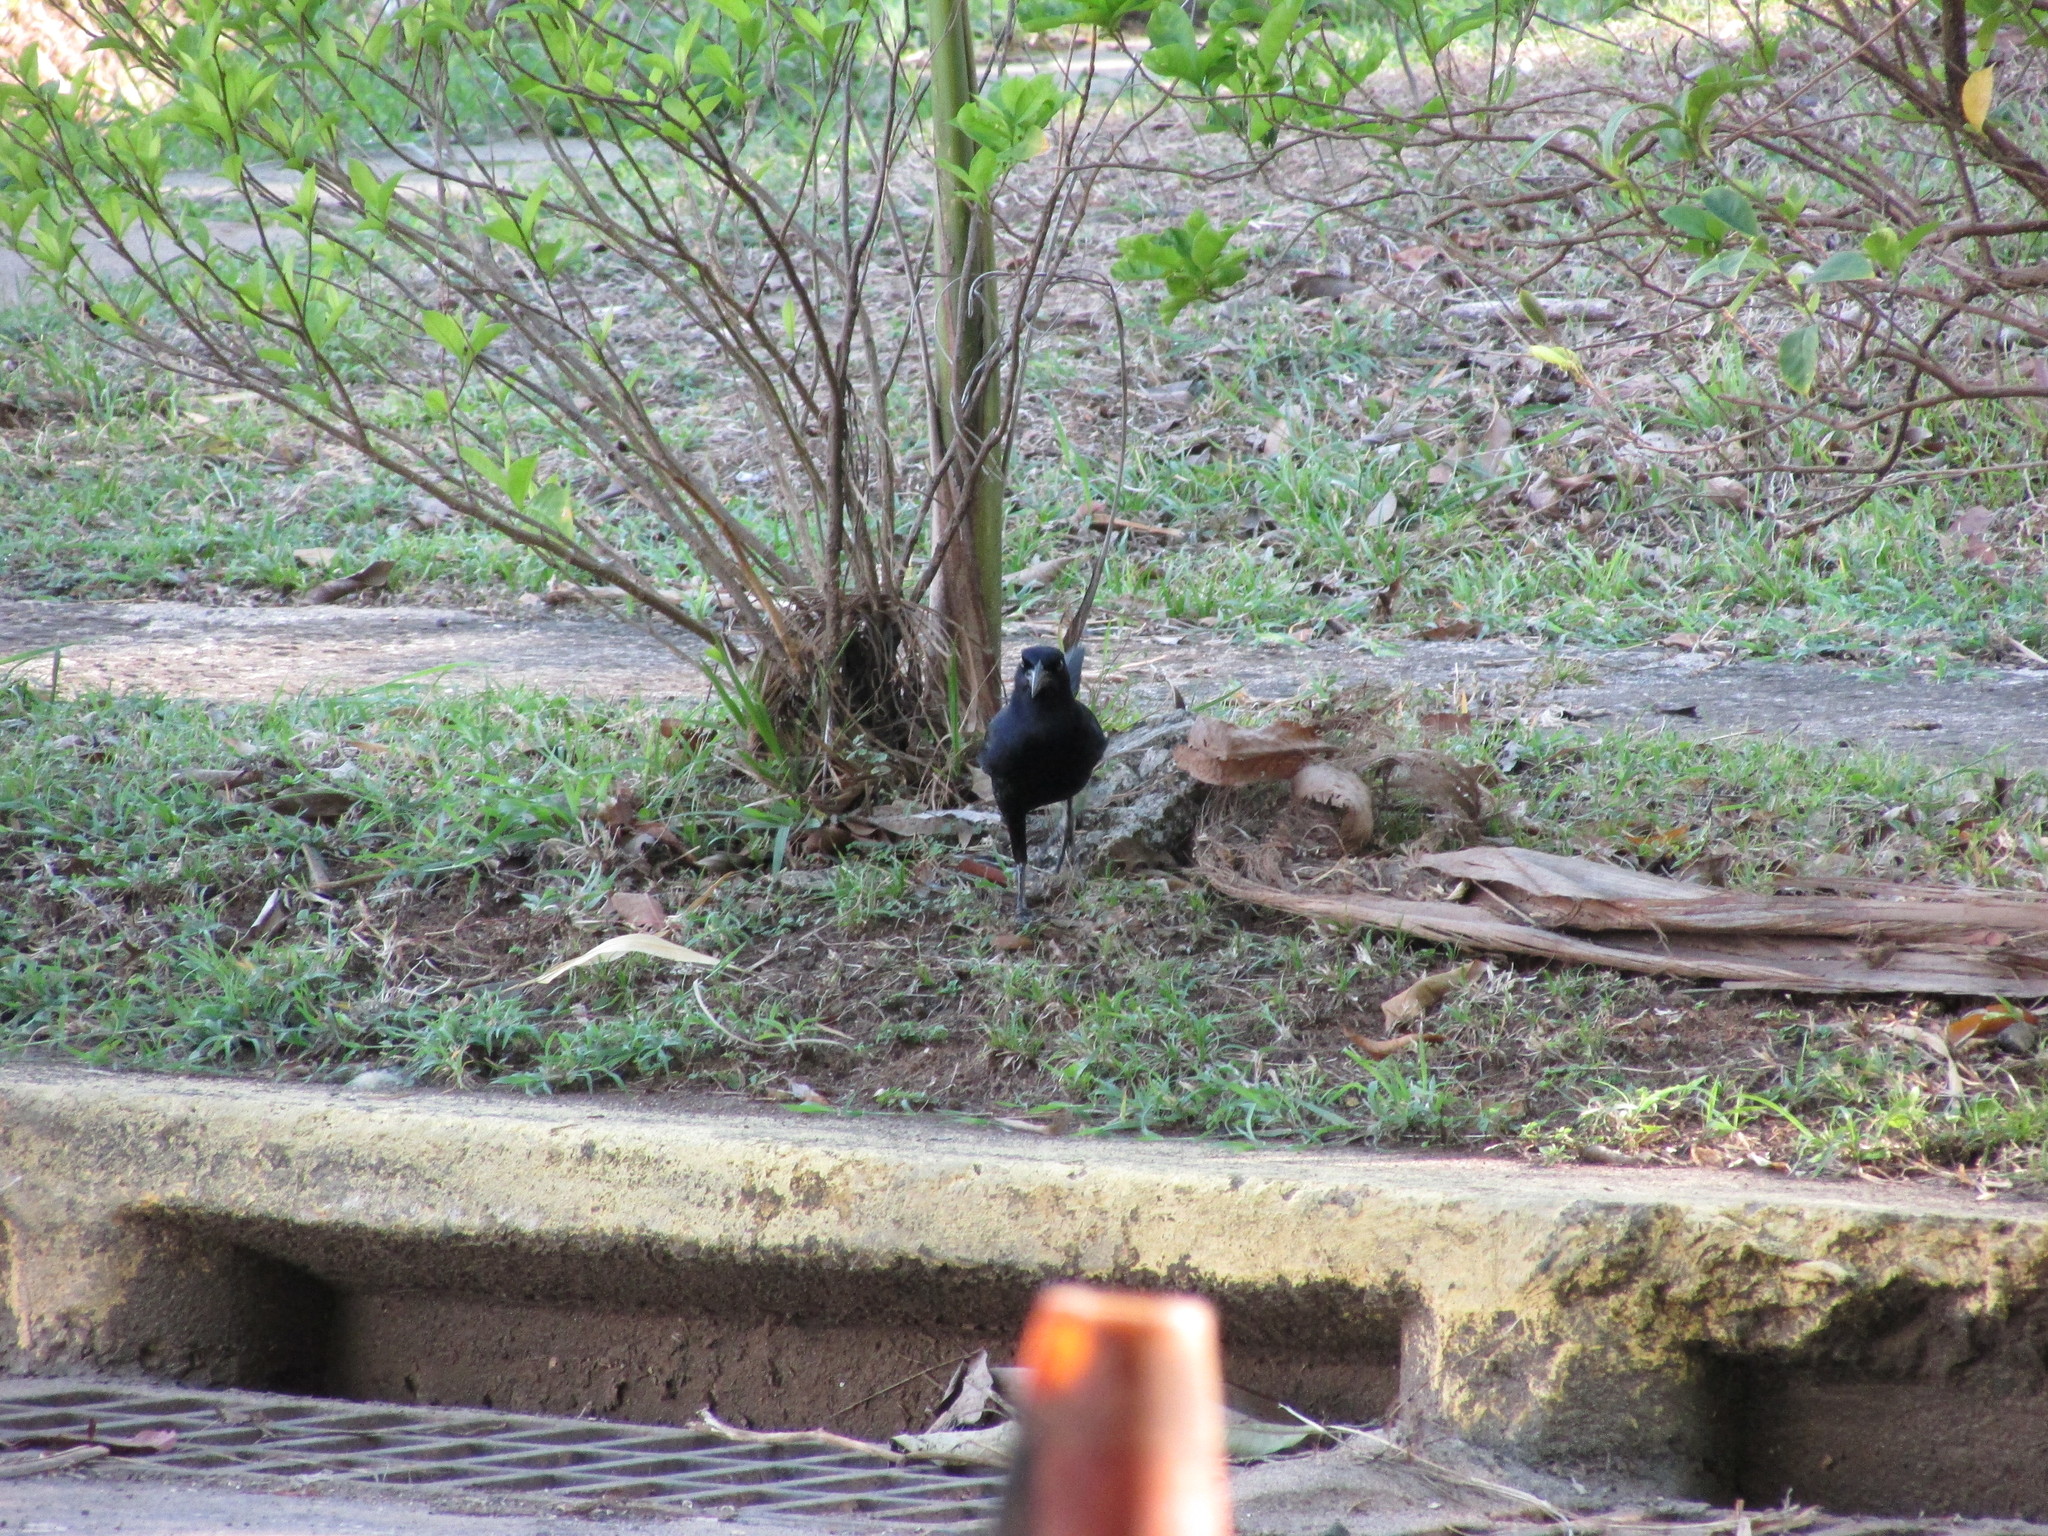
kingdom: Animalia
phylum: Chordata
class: Aves
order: Passeriformes
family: Icteridae
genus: Quiscalus
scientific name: Quiscalus mexicanus
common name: Great-tailed grackle
